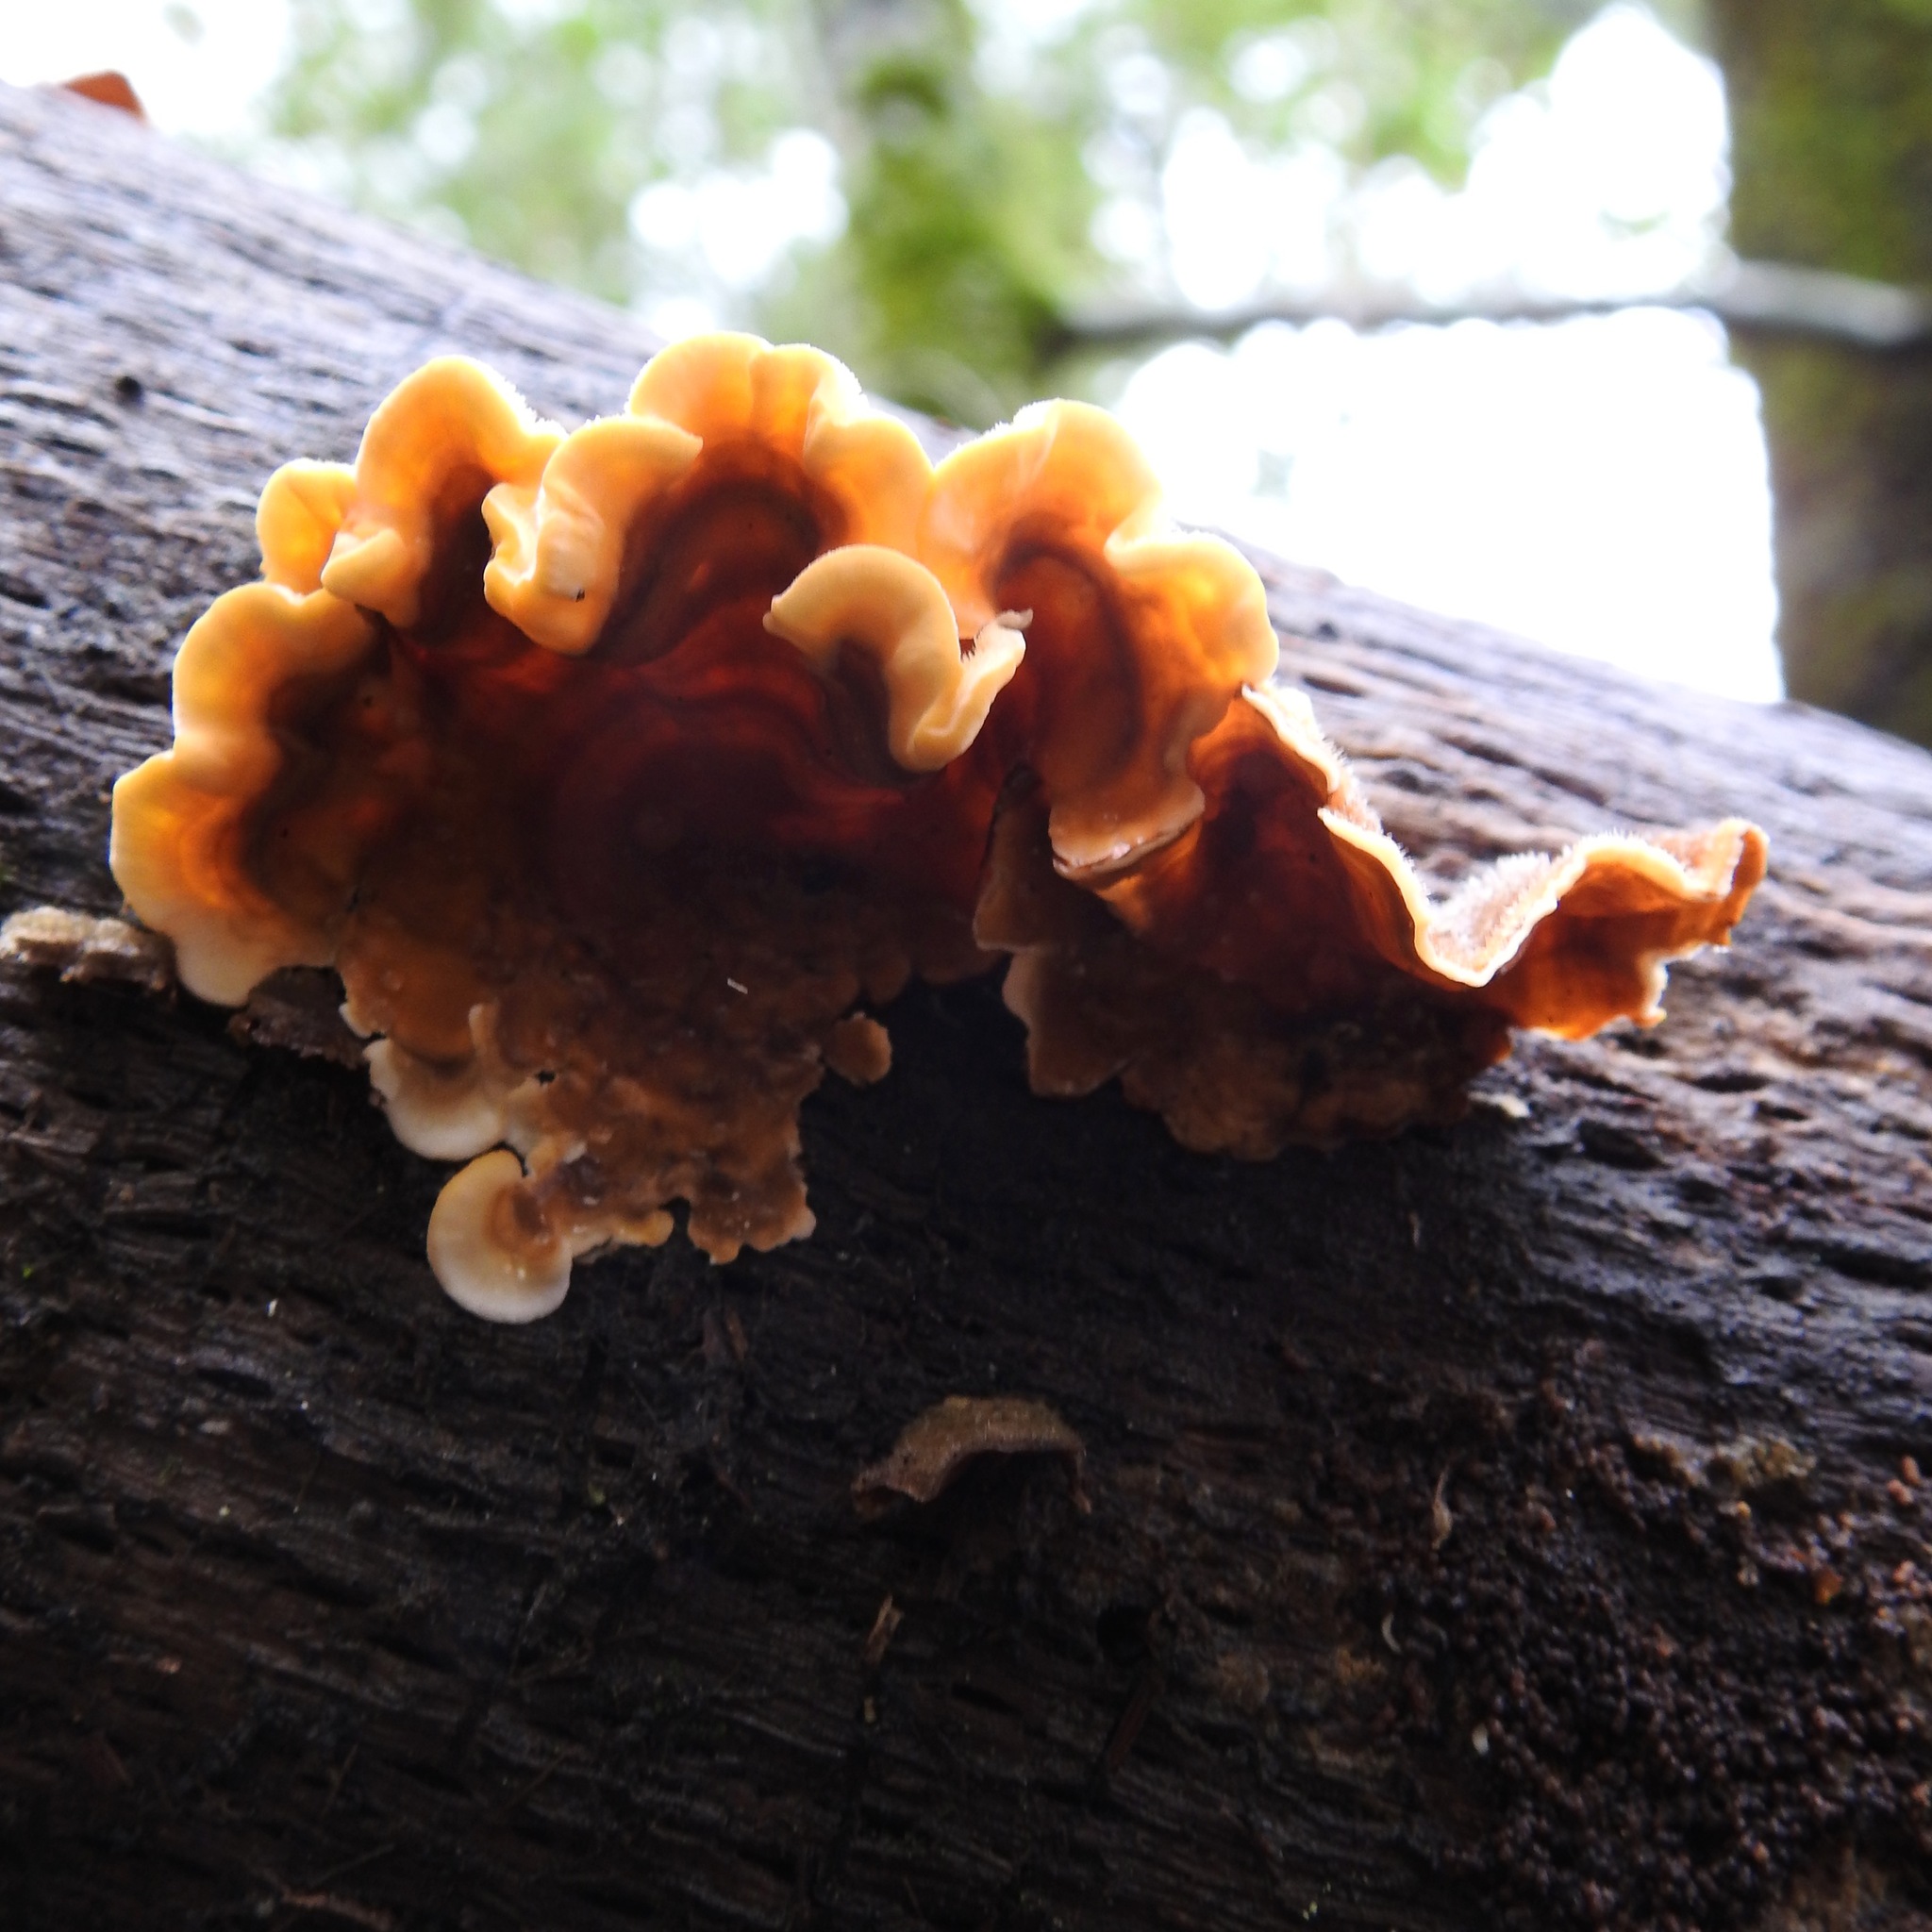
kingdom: Fungi
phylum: Basidiomycota
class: Agaricomycetes
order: Russulales
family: Stereaceae
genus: Stereum
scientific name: Stereum hirsutum
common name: Hairy curtain crust
